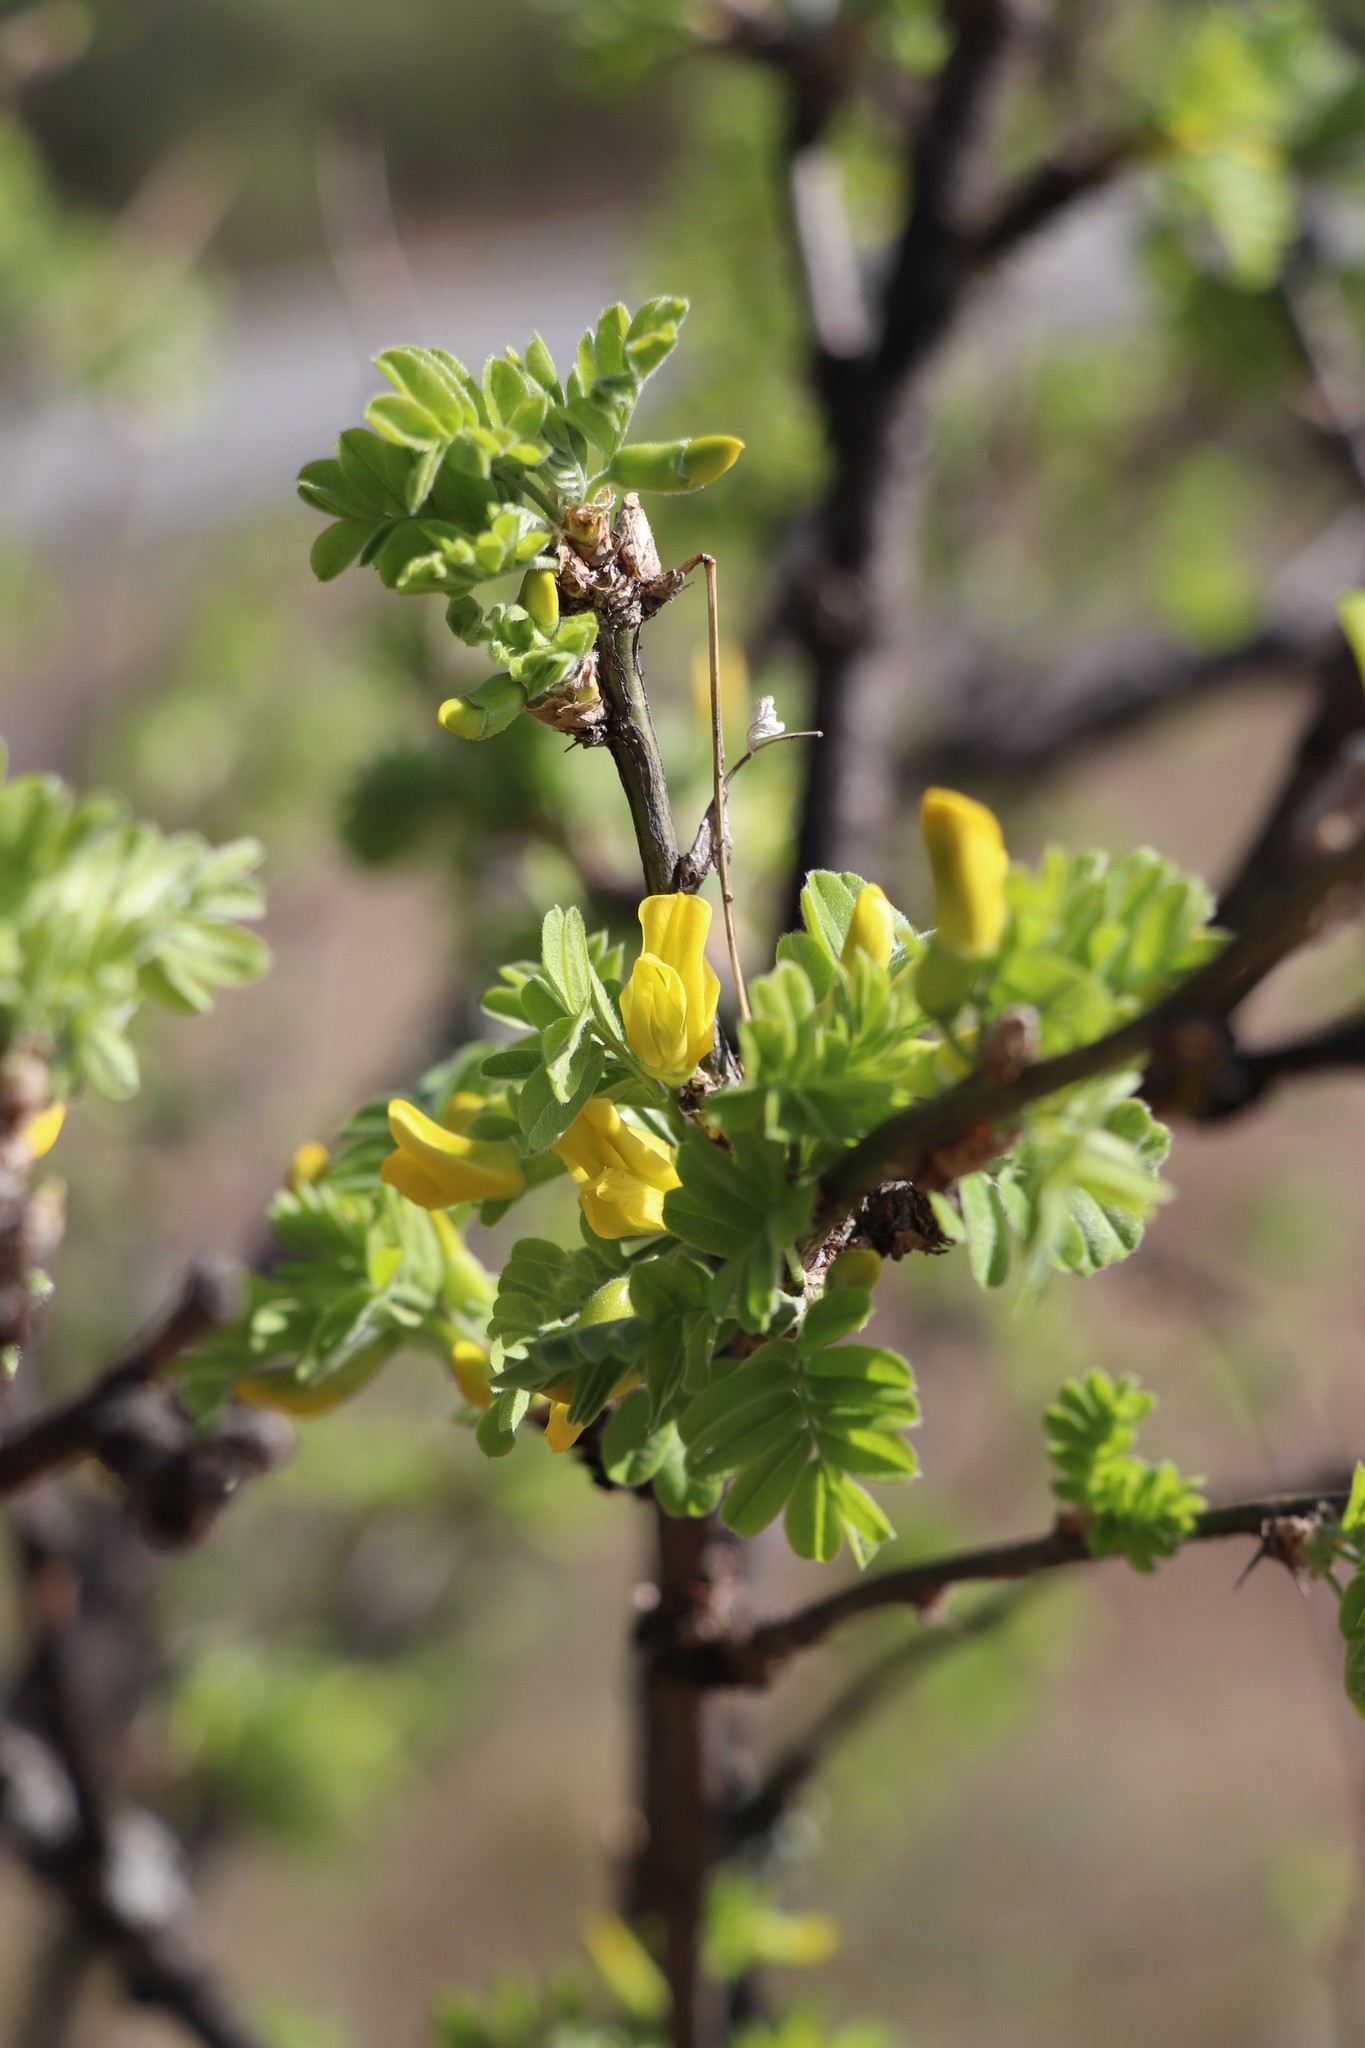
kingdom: Plantae
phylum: Tracheophyta
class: Magnoliopsida
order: Fabales
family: Fabaceae
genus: Caragana
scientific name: Caragana arborescens
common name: Siberian peashrub
